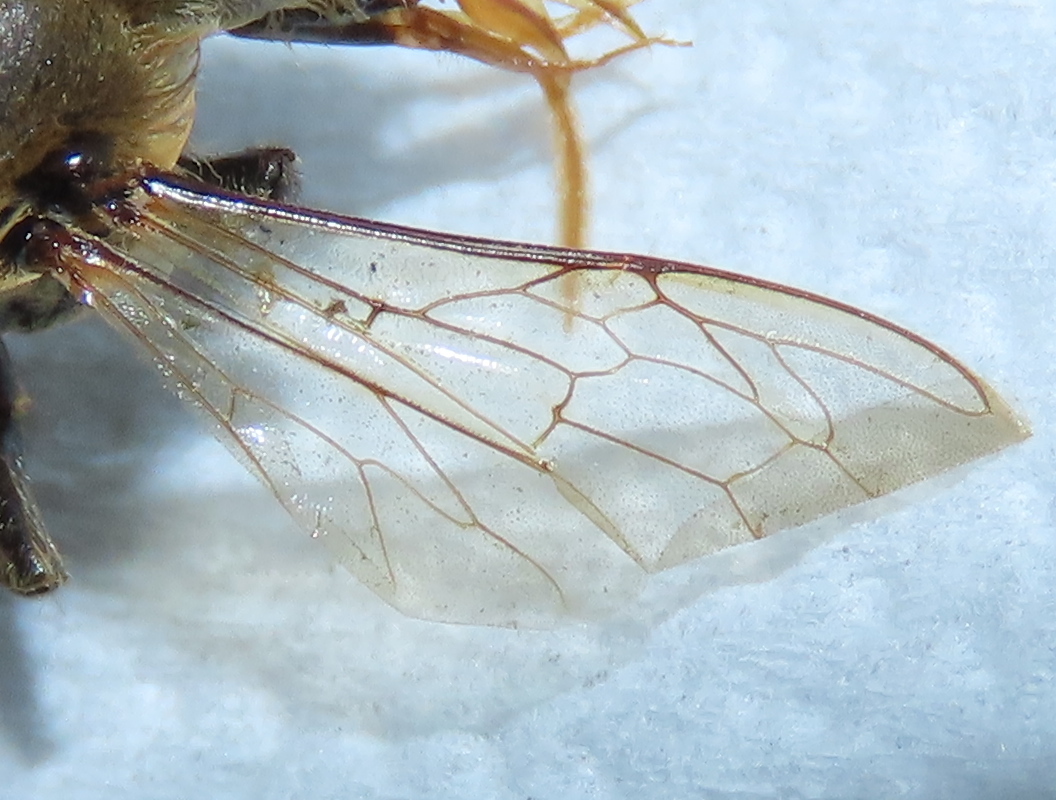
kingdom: Animalia
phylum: Arthropoda
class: Insecta
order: Hymenoptera
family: Apidae
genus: Apis
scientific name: Apis mellifera
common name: Honey bee
